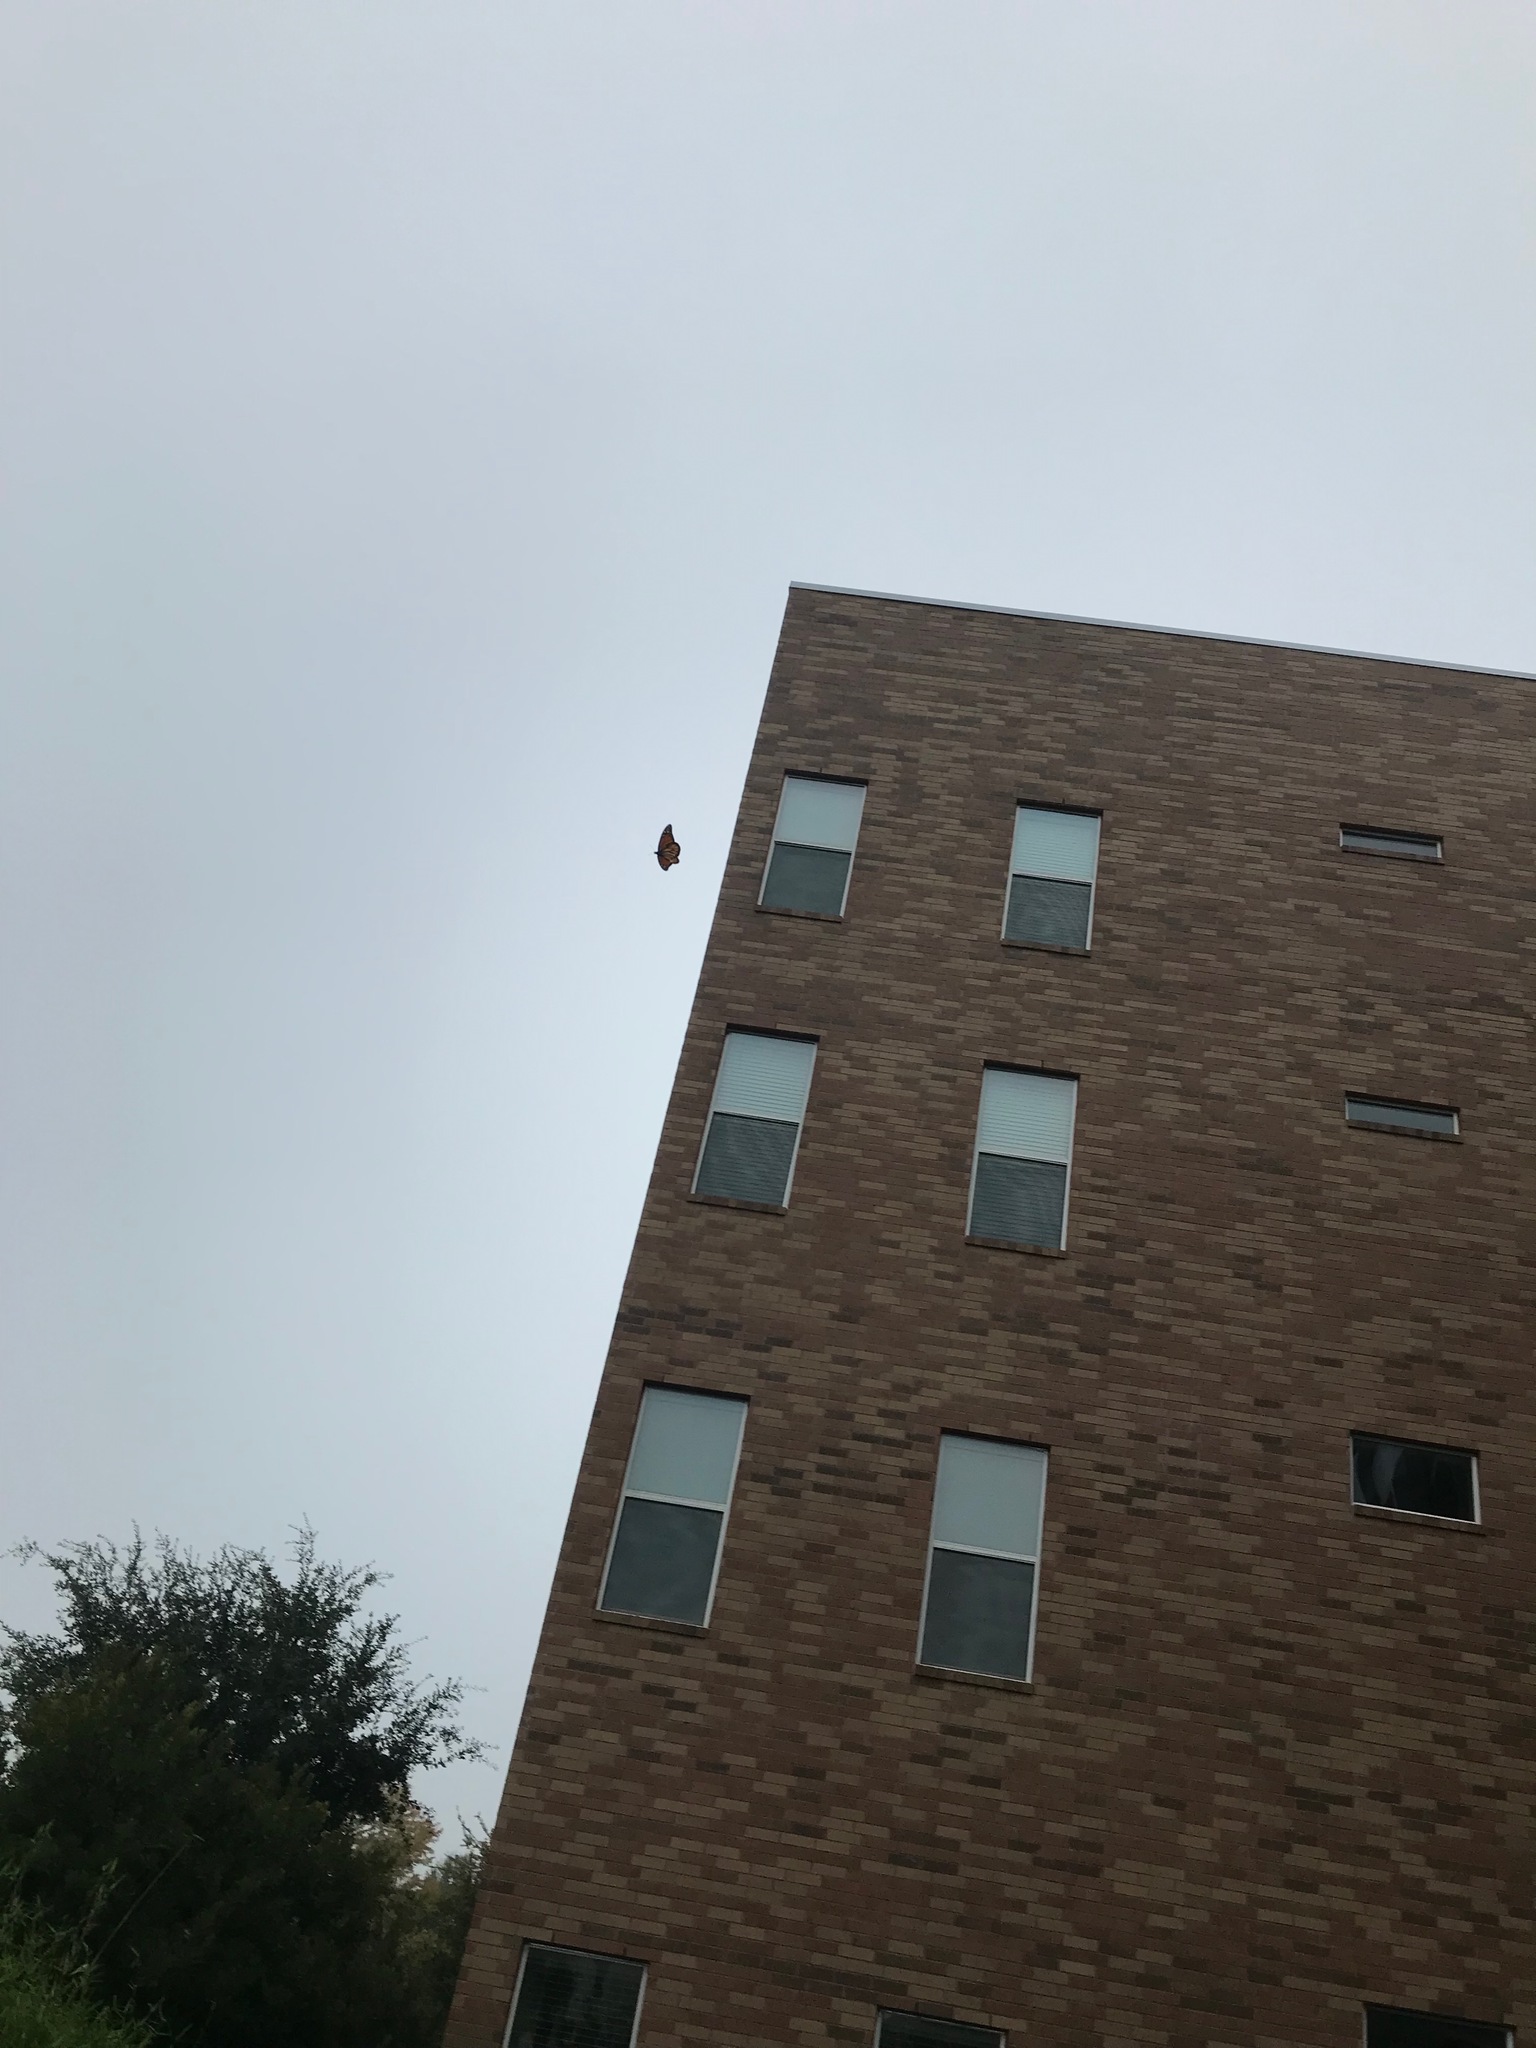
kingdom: Animalia
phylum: Arthropoda
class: Insecta
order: Lepidoptera
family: Nymphalidae
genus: Danaus
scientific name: Danaus plexippus
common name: Monarch
